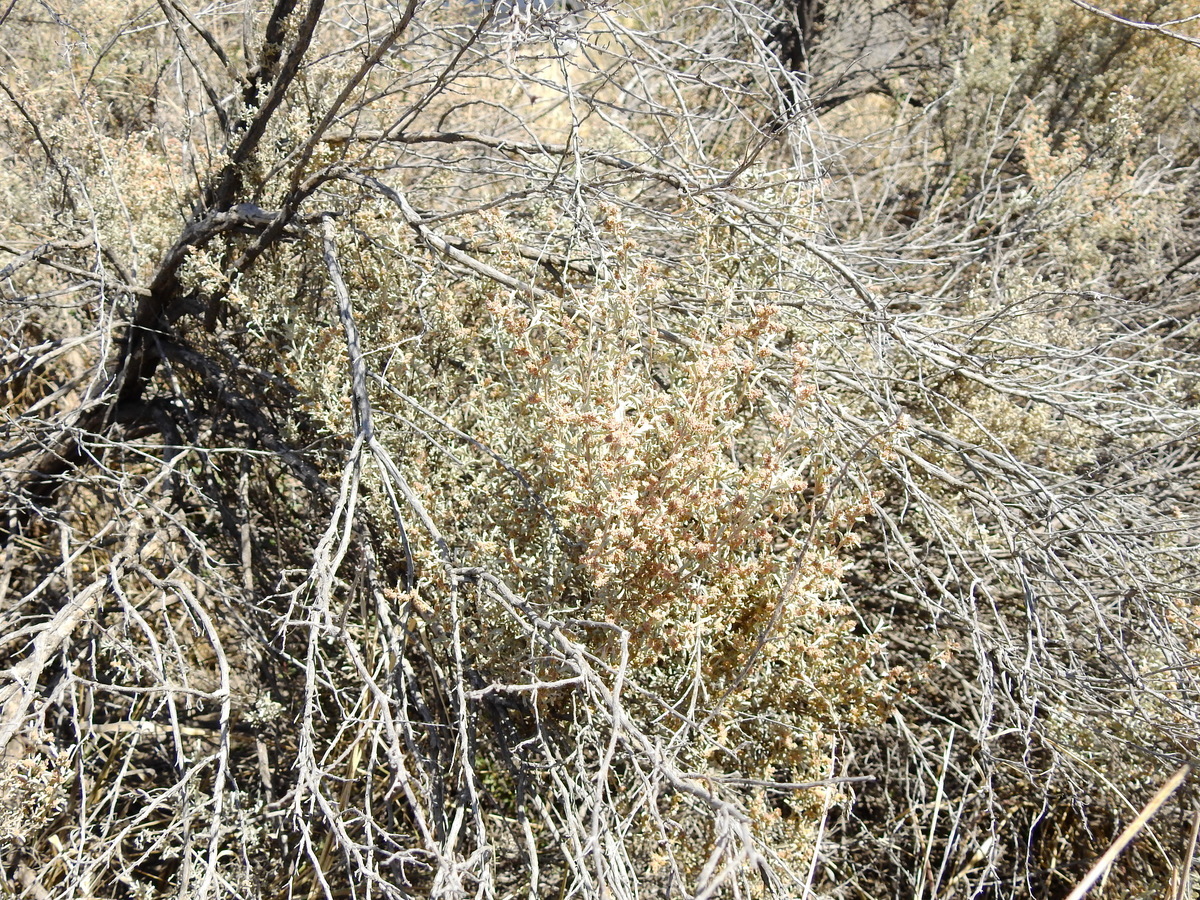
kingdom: Plantae
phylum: Tracheophyta
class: Magnoliopsida
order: Caryophyllales
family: Amaranthaceae
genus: Atriplex
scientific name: Atriplex lampa
